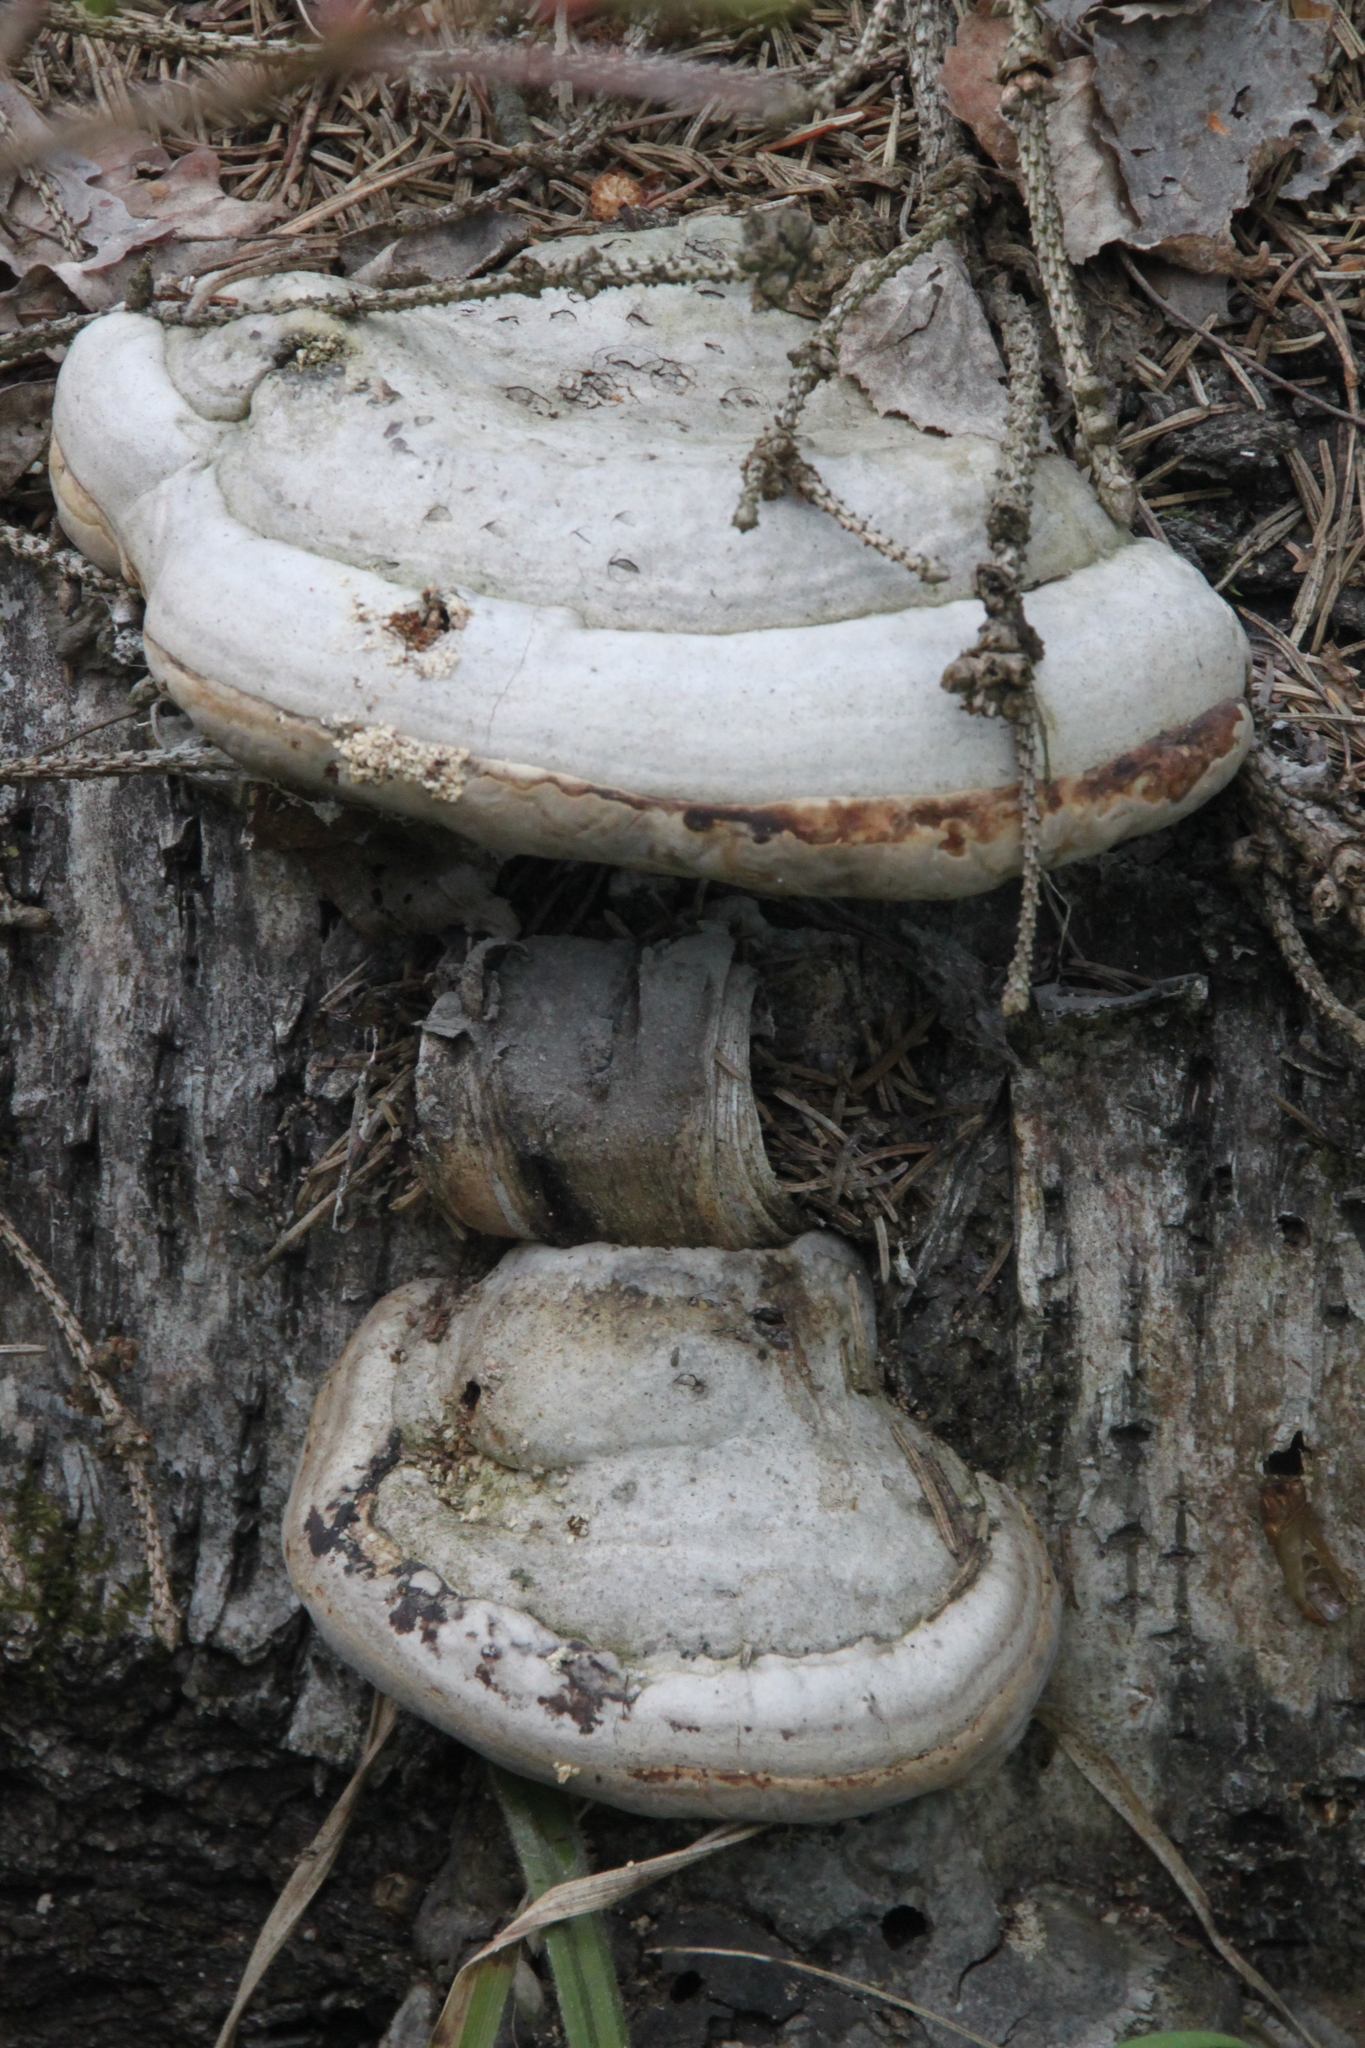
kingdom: Fungi
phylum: Basidiomycota
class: Agaricomycetes
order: Polyporales
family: Polyporaceae
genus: Fomes
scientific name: Fomes fomentarius
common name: Hoof fungus
